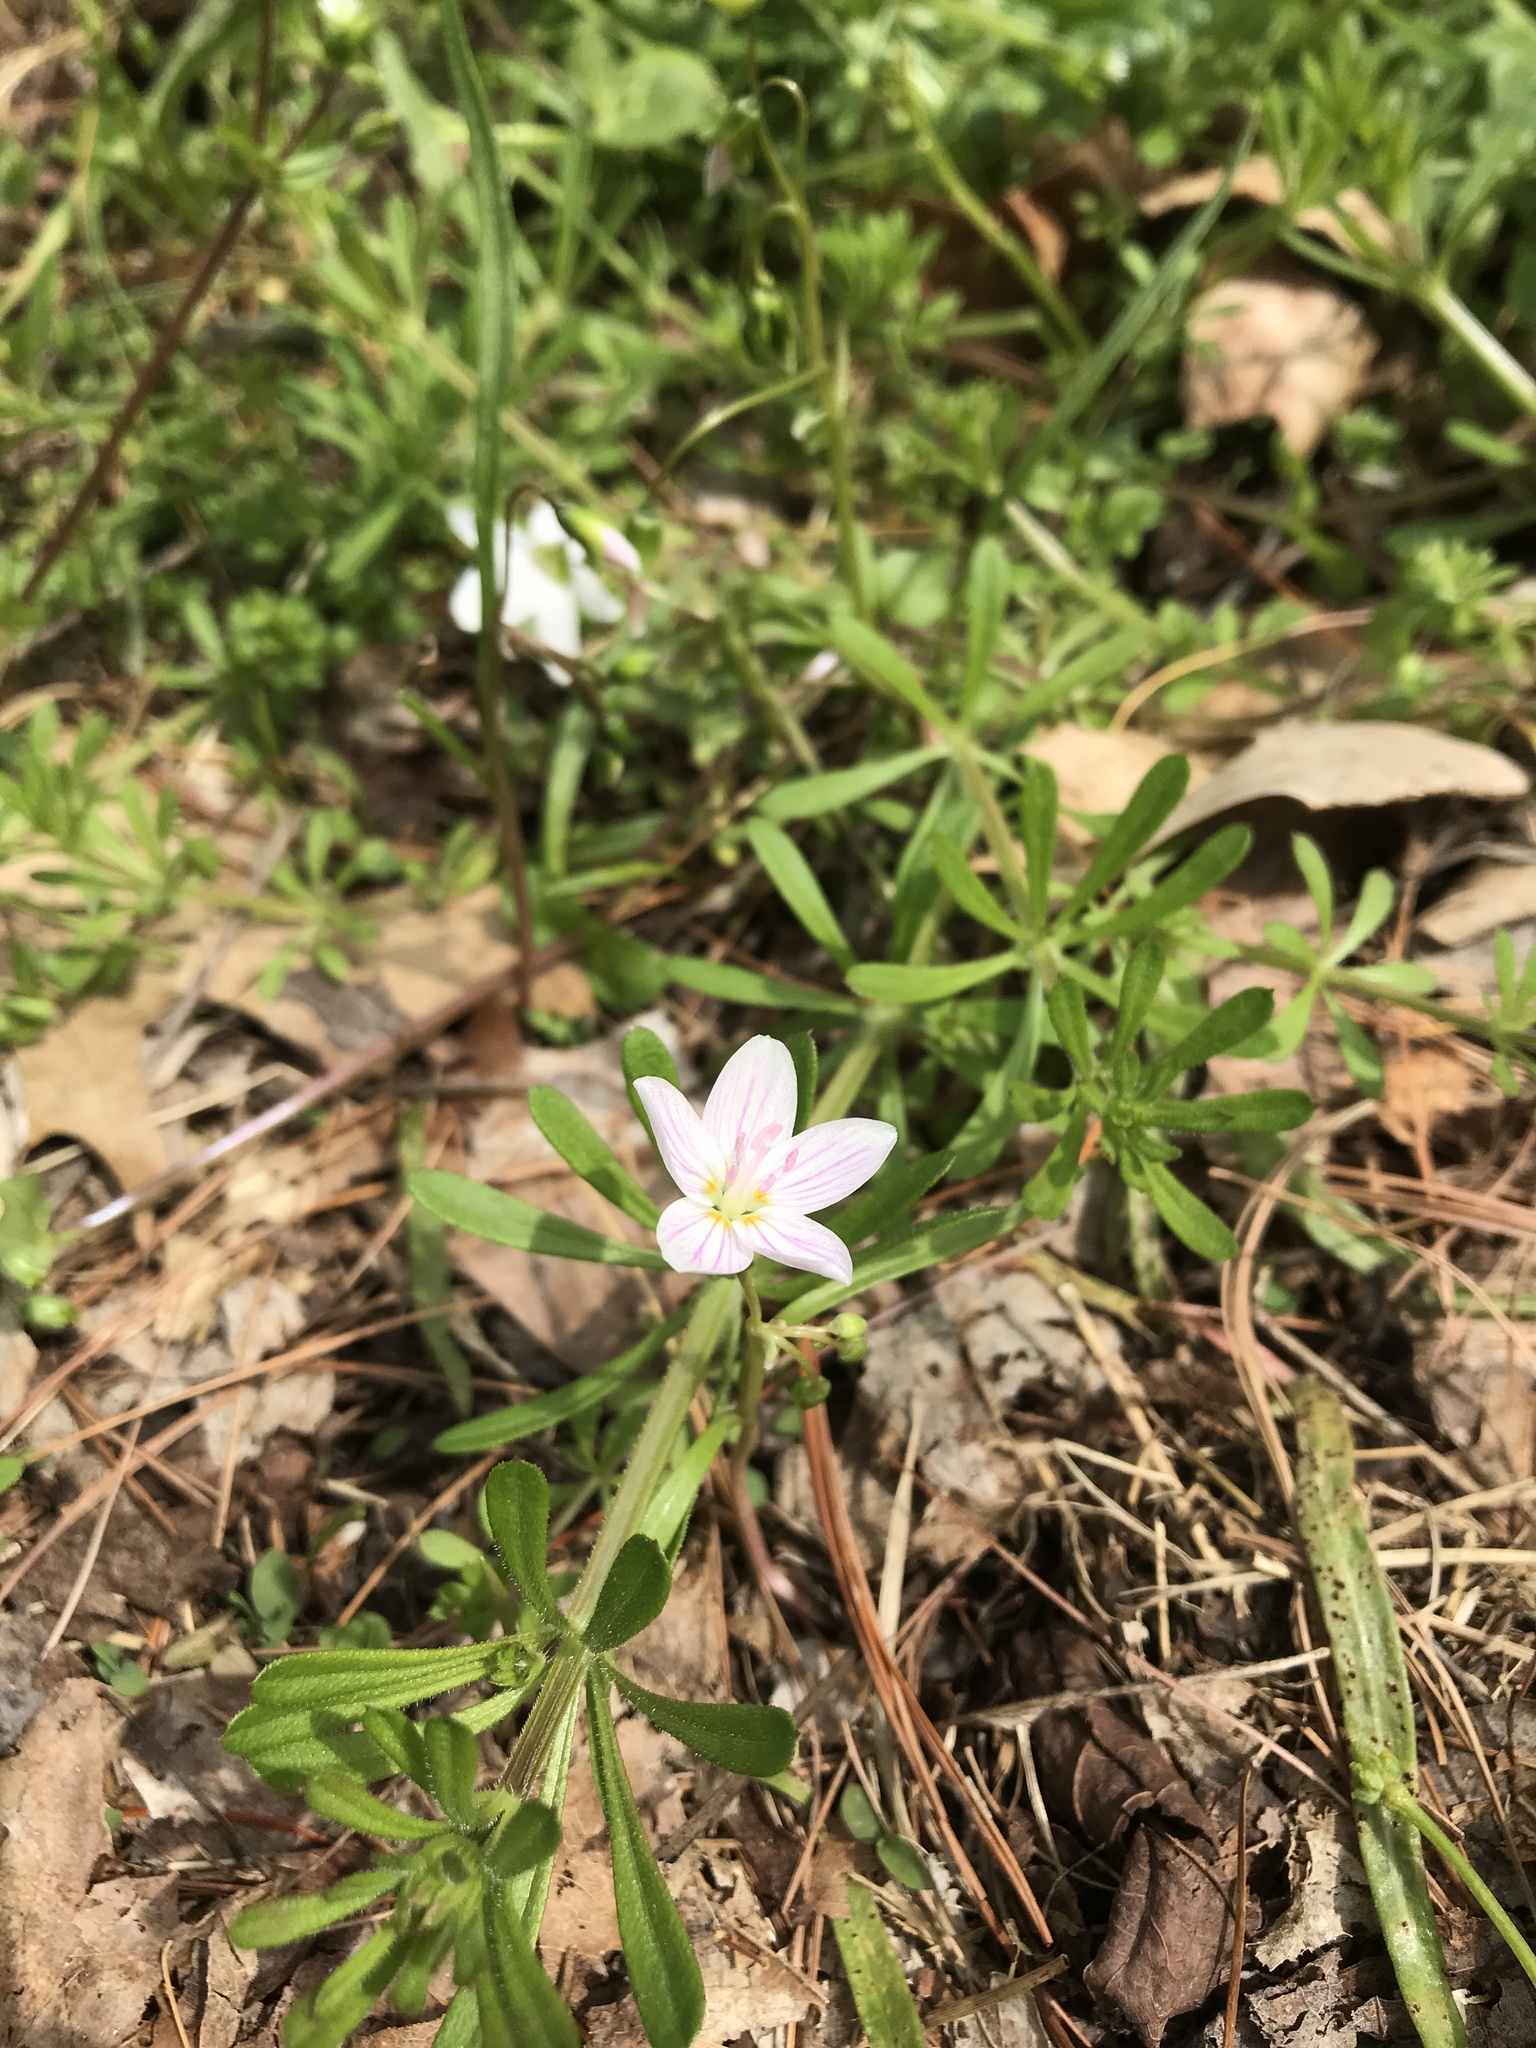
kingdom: Plantae
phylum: Tracheophyta
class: Magnoliopsida
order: Caryophyllales
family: Montiaceae
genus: Claytonia
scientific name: Claytonia virginica
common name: Virginia springbeauty
